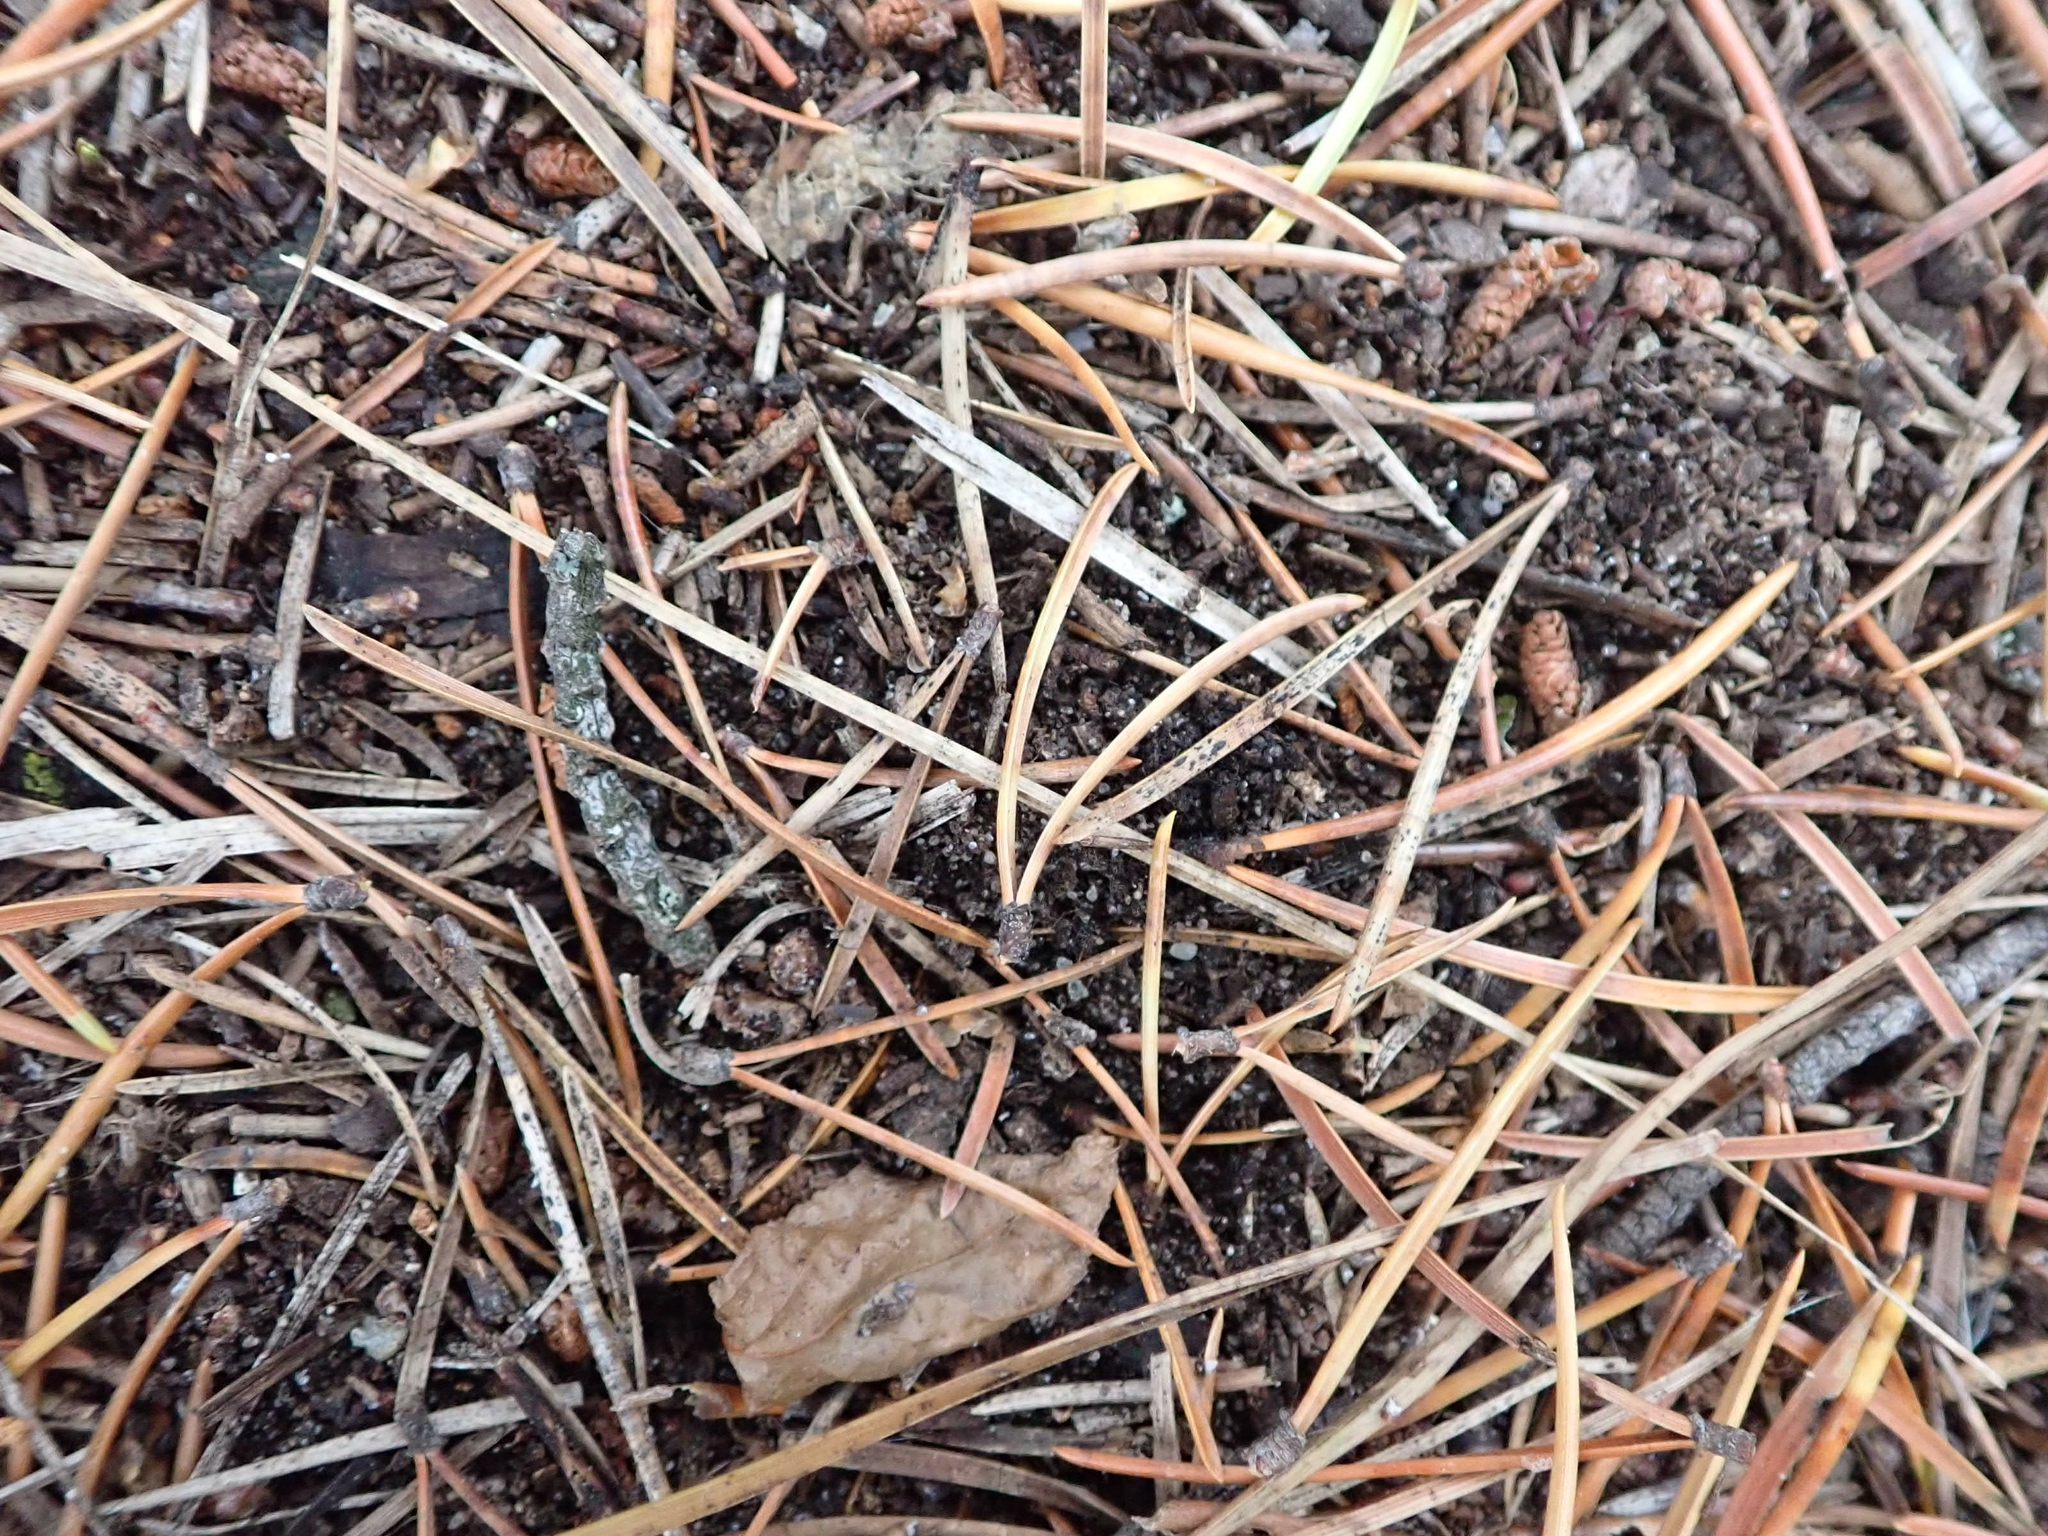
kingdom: Plantae
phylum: Tracheophyta
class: Pinopsida
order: Pinales
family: Pinaceae
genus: Pinus
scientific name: Pinus banksiana
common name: Jack pine
